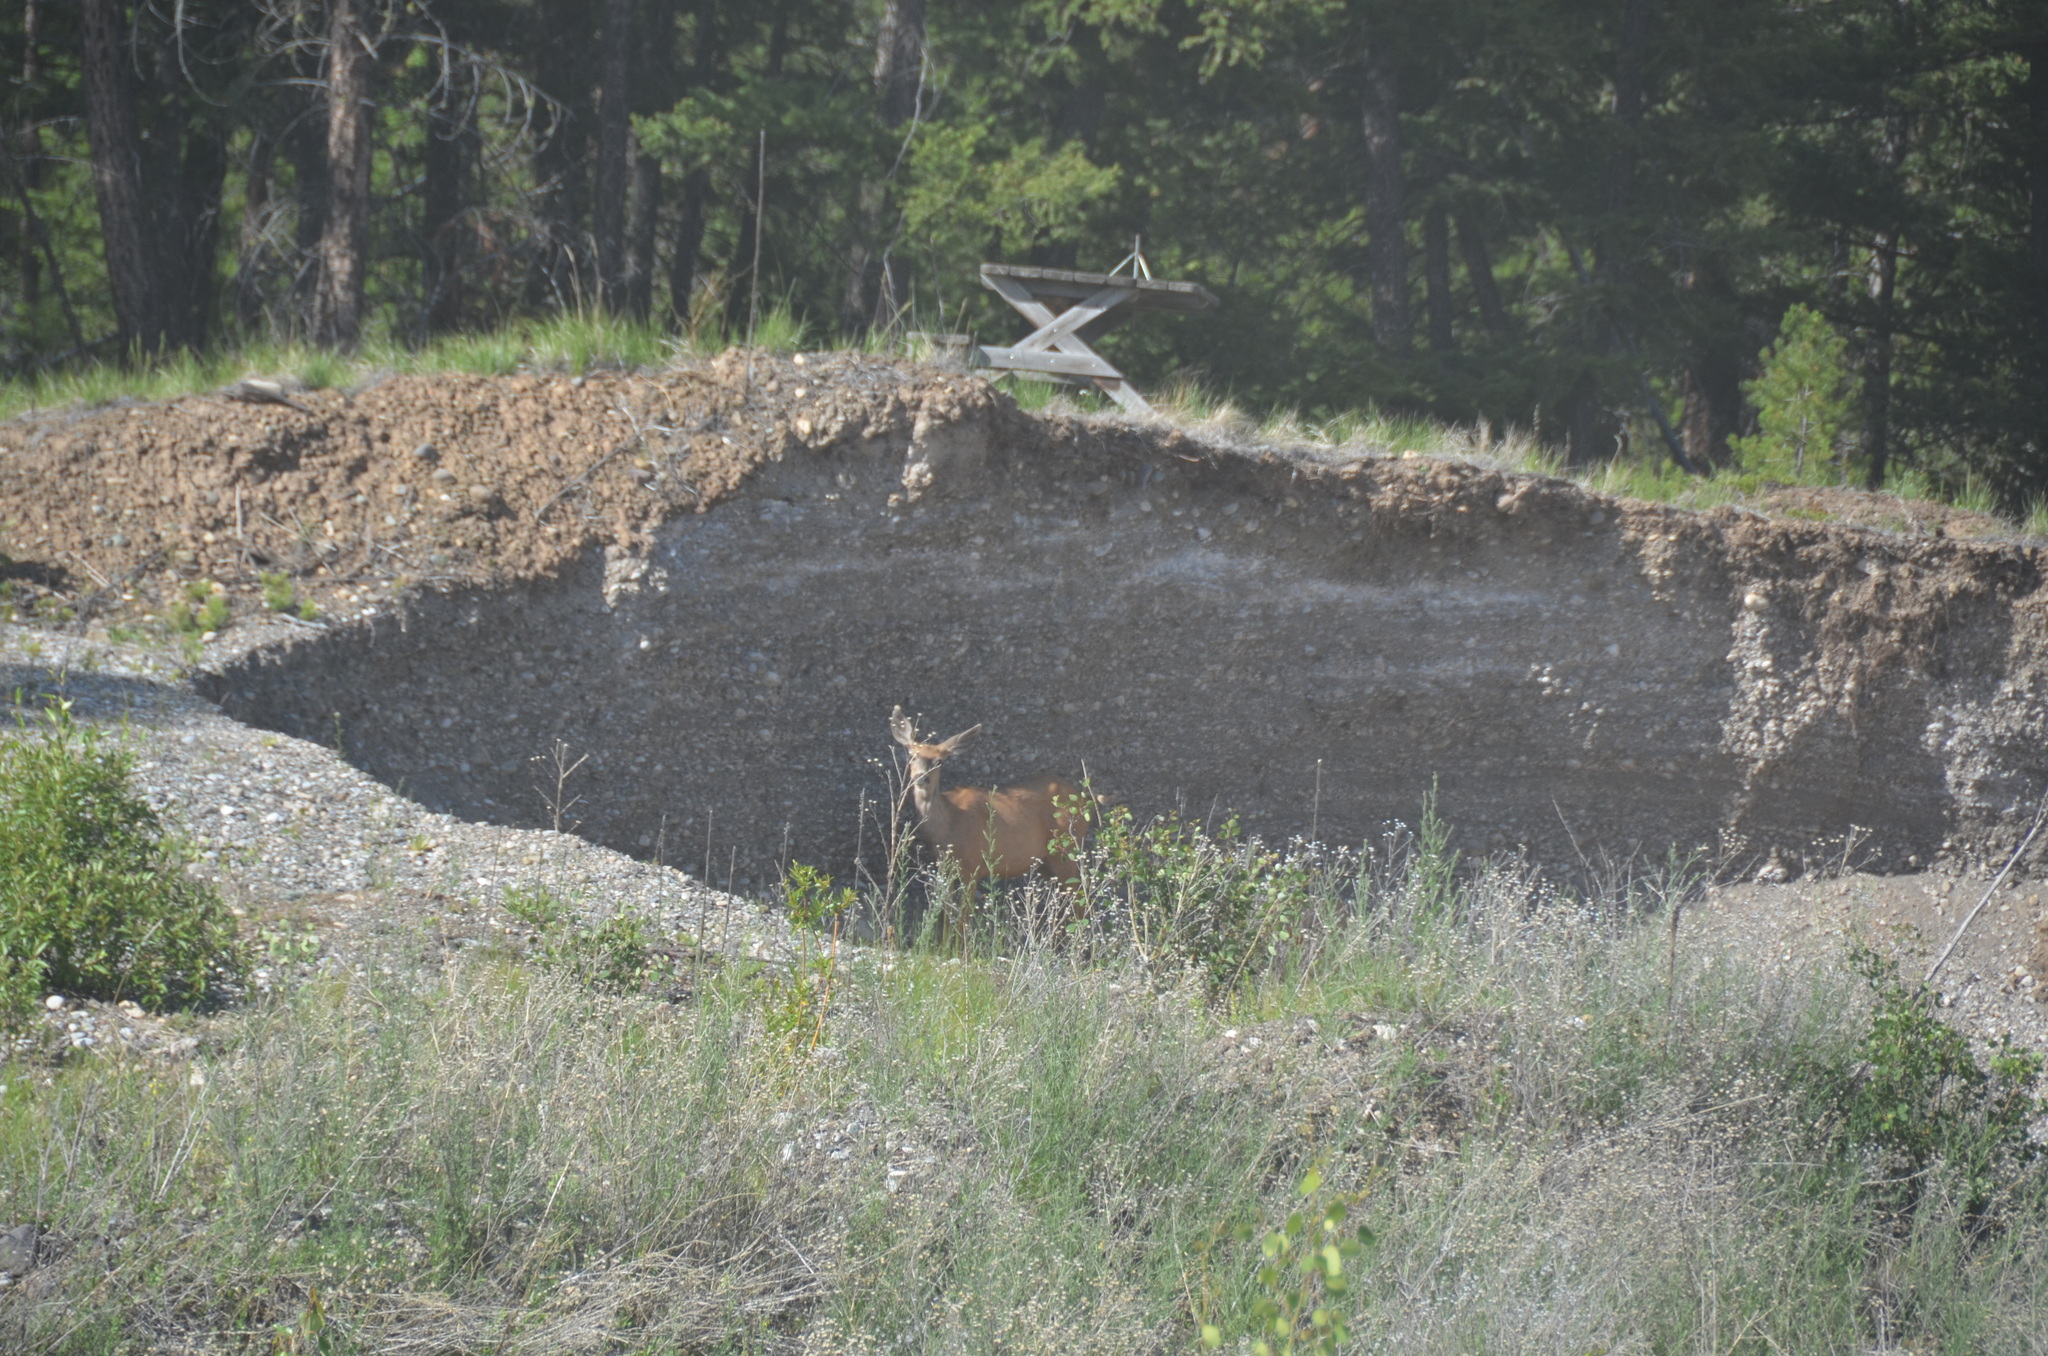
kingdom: Animalia
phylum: Chordata
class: Mammalia
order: Artiodactyla
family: Cervidae
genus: Odocoileus
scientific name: Odocoileus hemionus
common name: Mule deer
